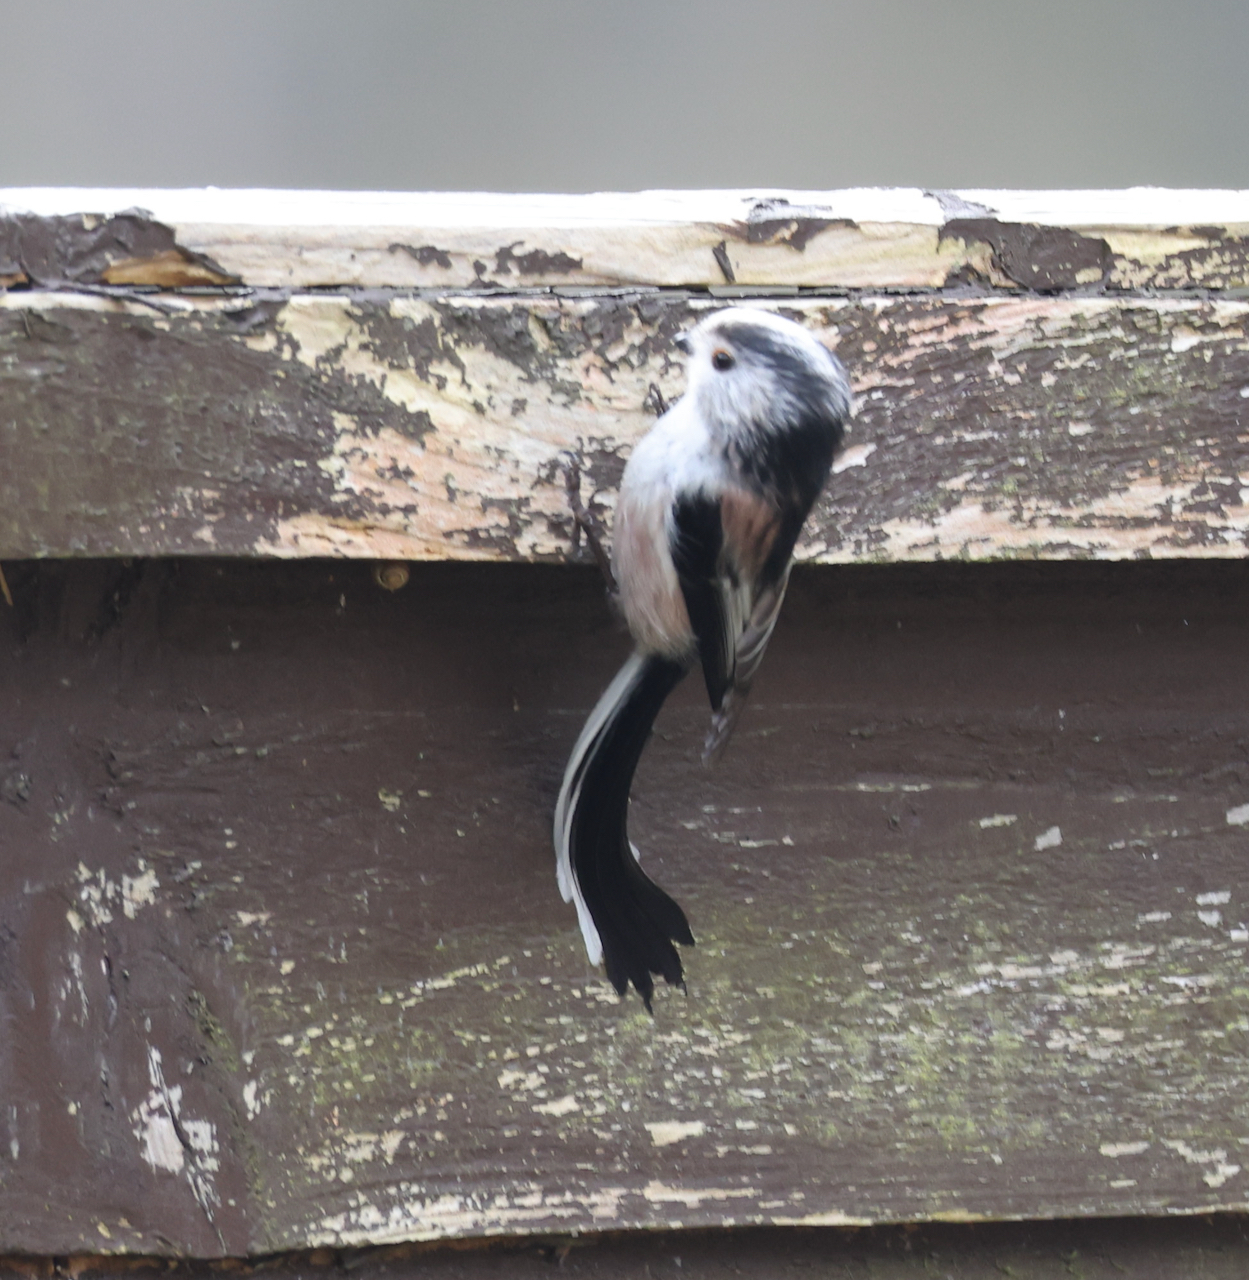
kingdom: Animalia
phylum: Chordata
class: Aves
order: Passeriformes
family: Aegithalidae
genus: Aegithalos
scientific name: Aegithalos caudatus
